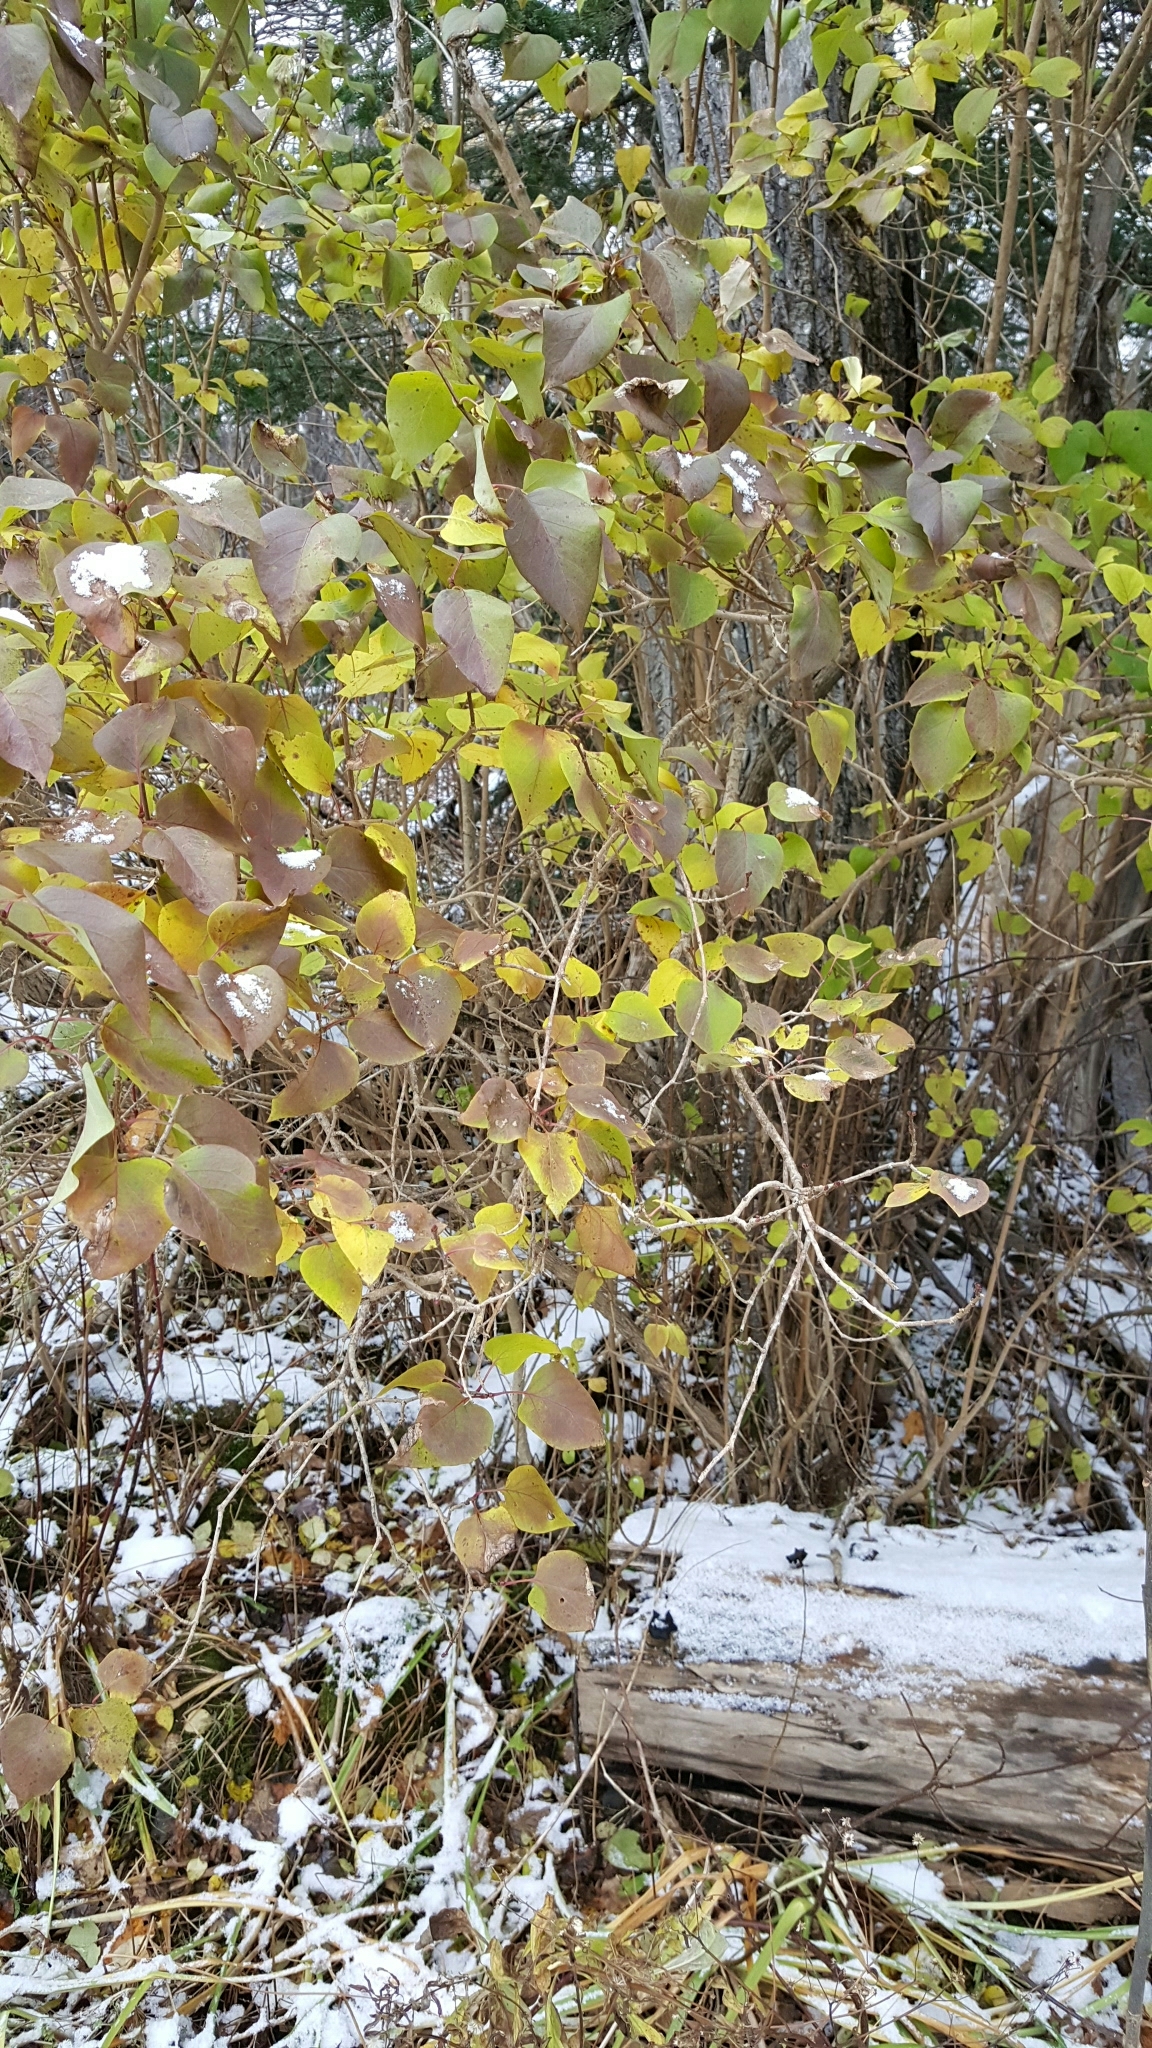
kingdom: Plantae
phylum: Tracheophyta
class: Magnoliopsida
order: Lamiales
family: Oleaceae
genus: Syringa
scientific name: Syringa vulgaris
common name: Common lilac
